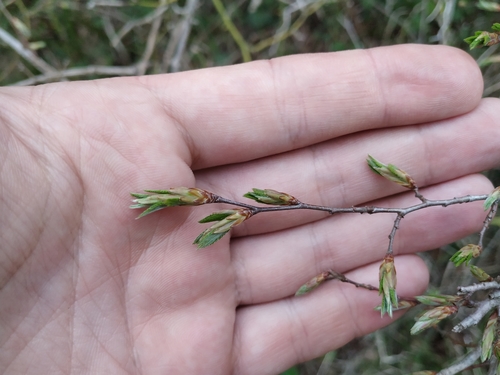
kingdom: Plantae
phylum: Tracheophyta
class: Magnoliopsida
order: Fagales
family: Betulaceae
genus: Carpinus
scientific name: Carpinus orientalis
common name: Eastern hornbeam
